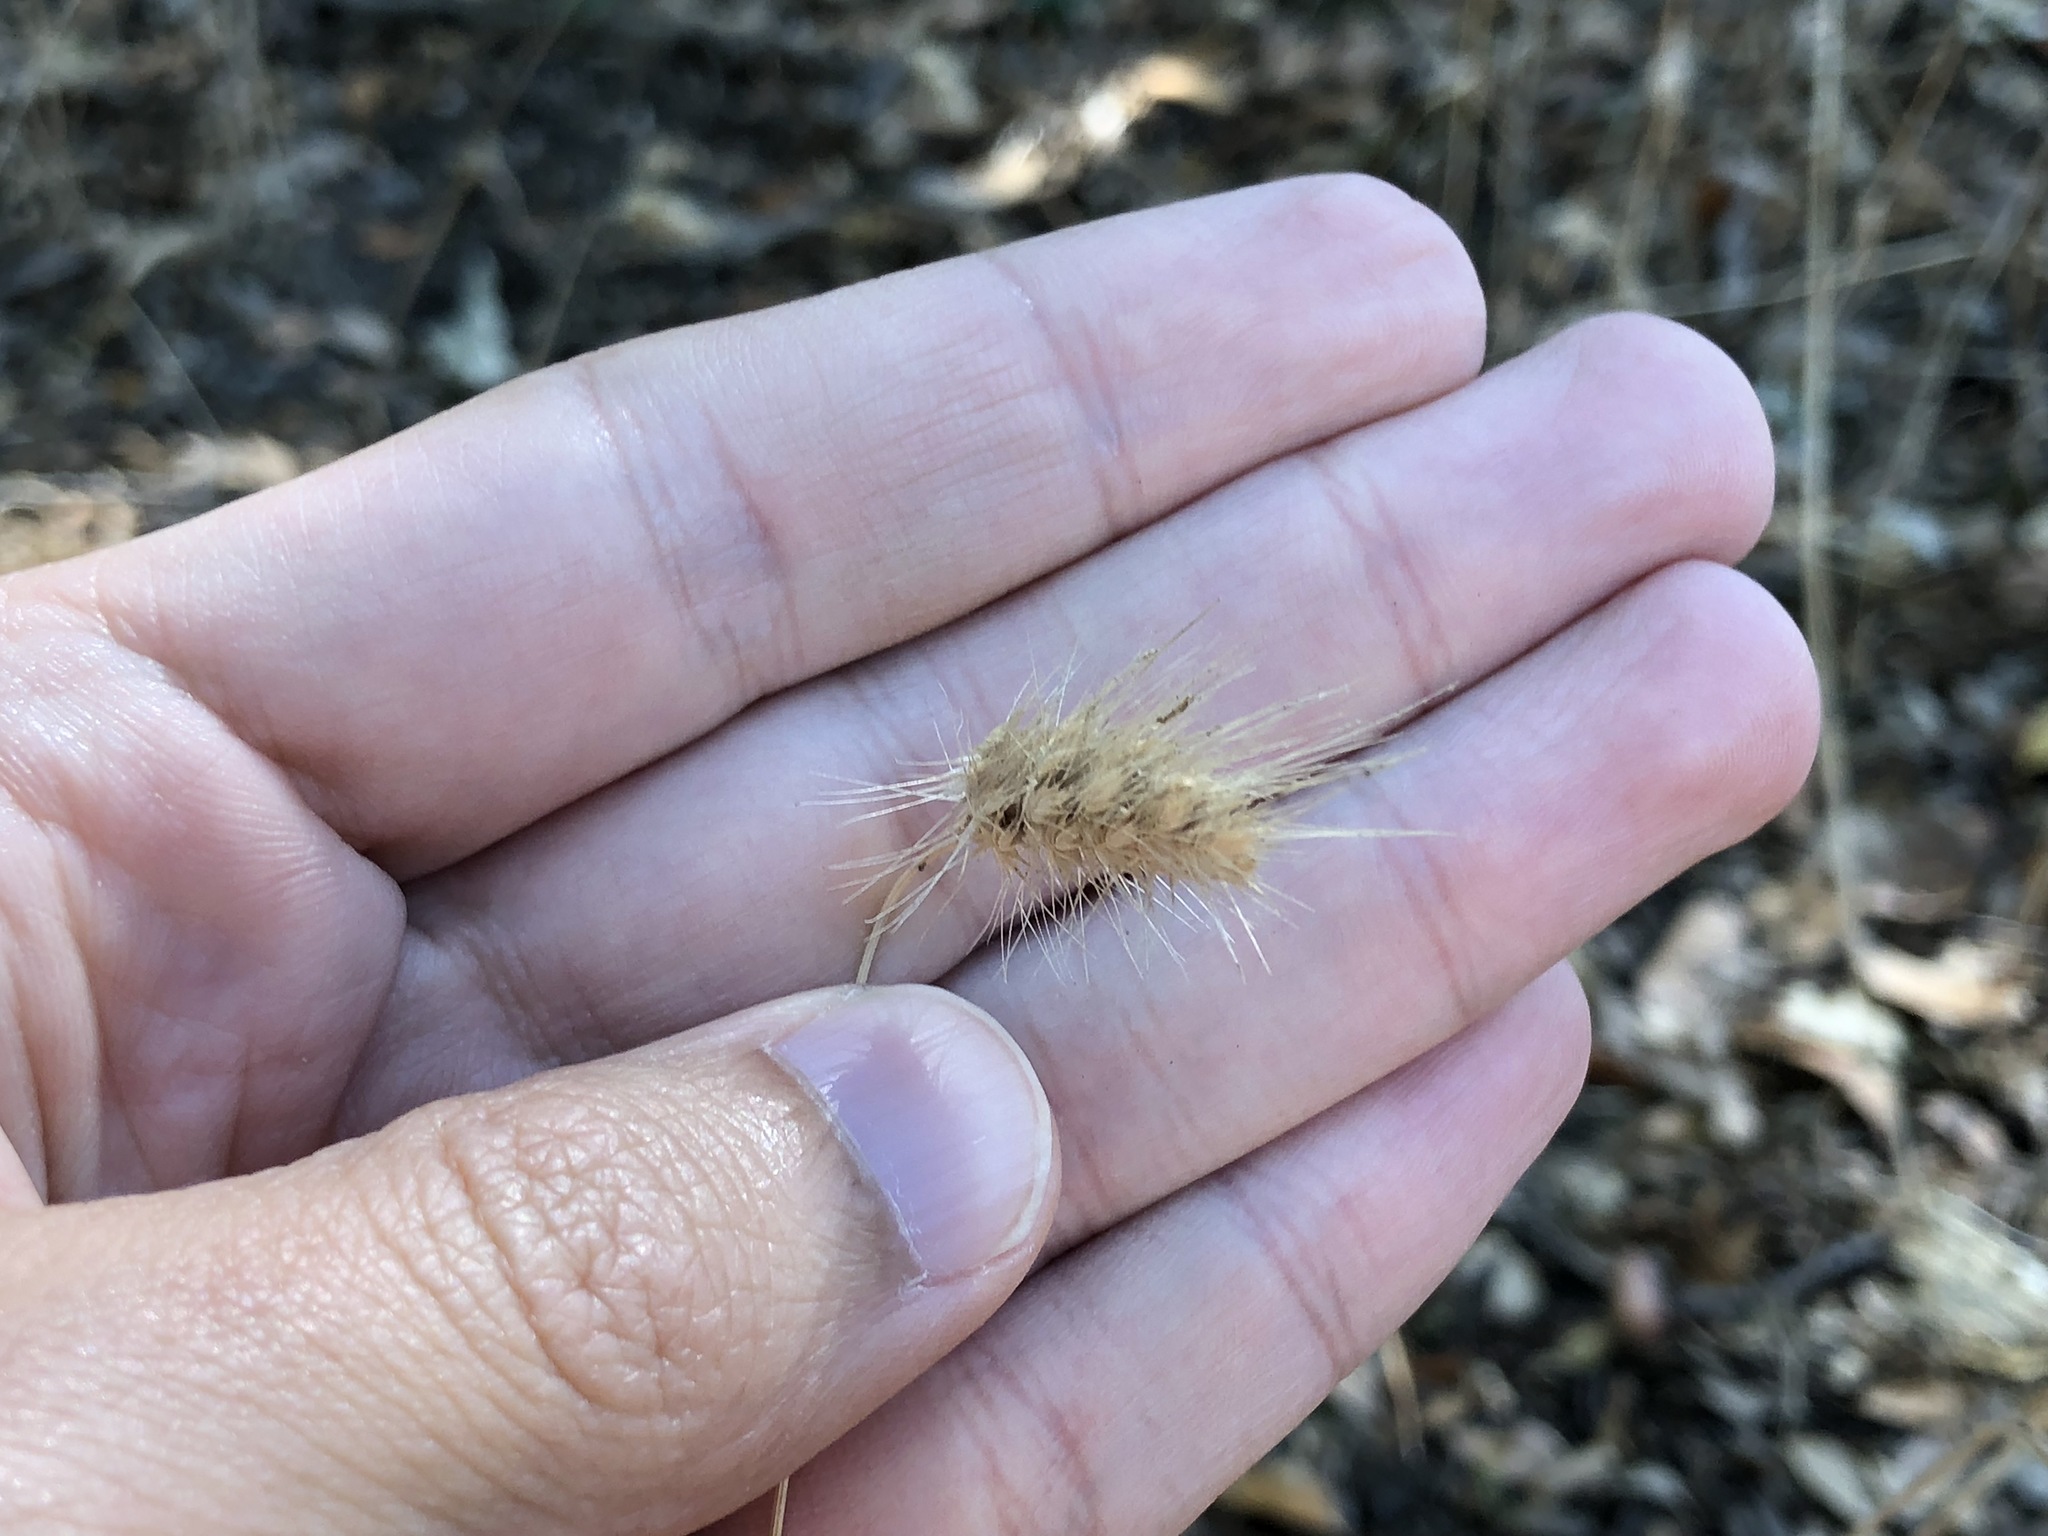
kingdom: Plantae
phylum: Tracheophyta
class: Liliopsida
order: Poales
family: Poaceae
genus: Cynosurus
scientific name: Cynosurus echinatus
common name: Rough dog's-tail
